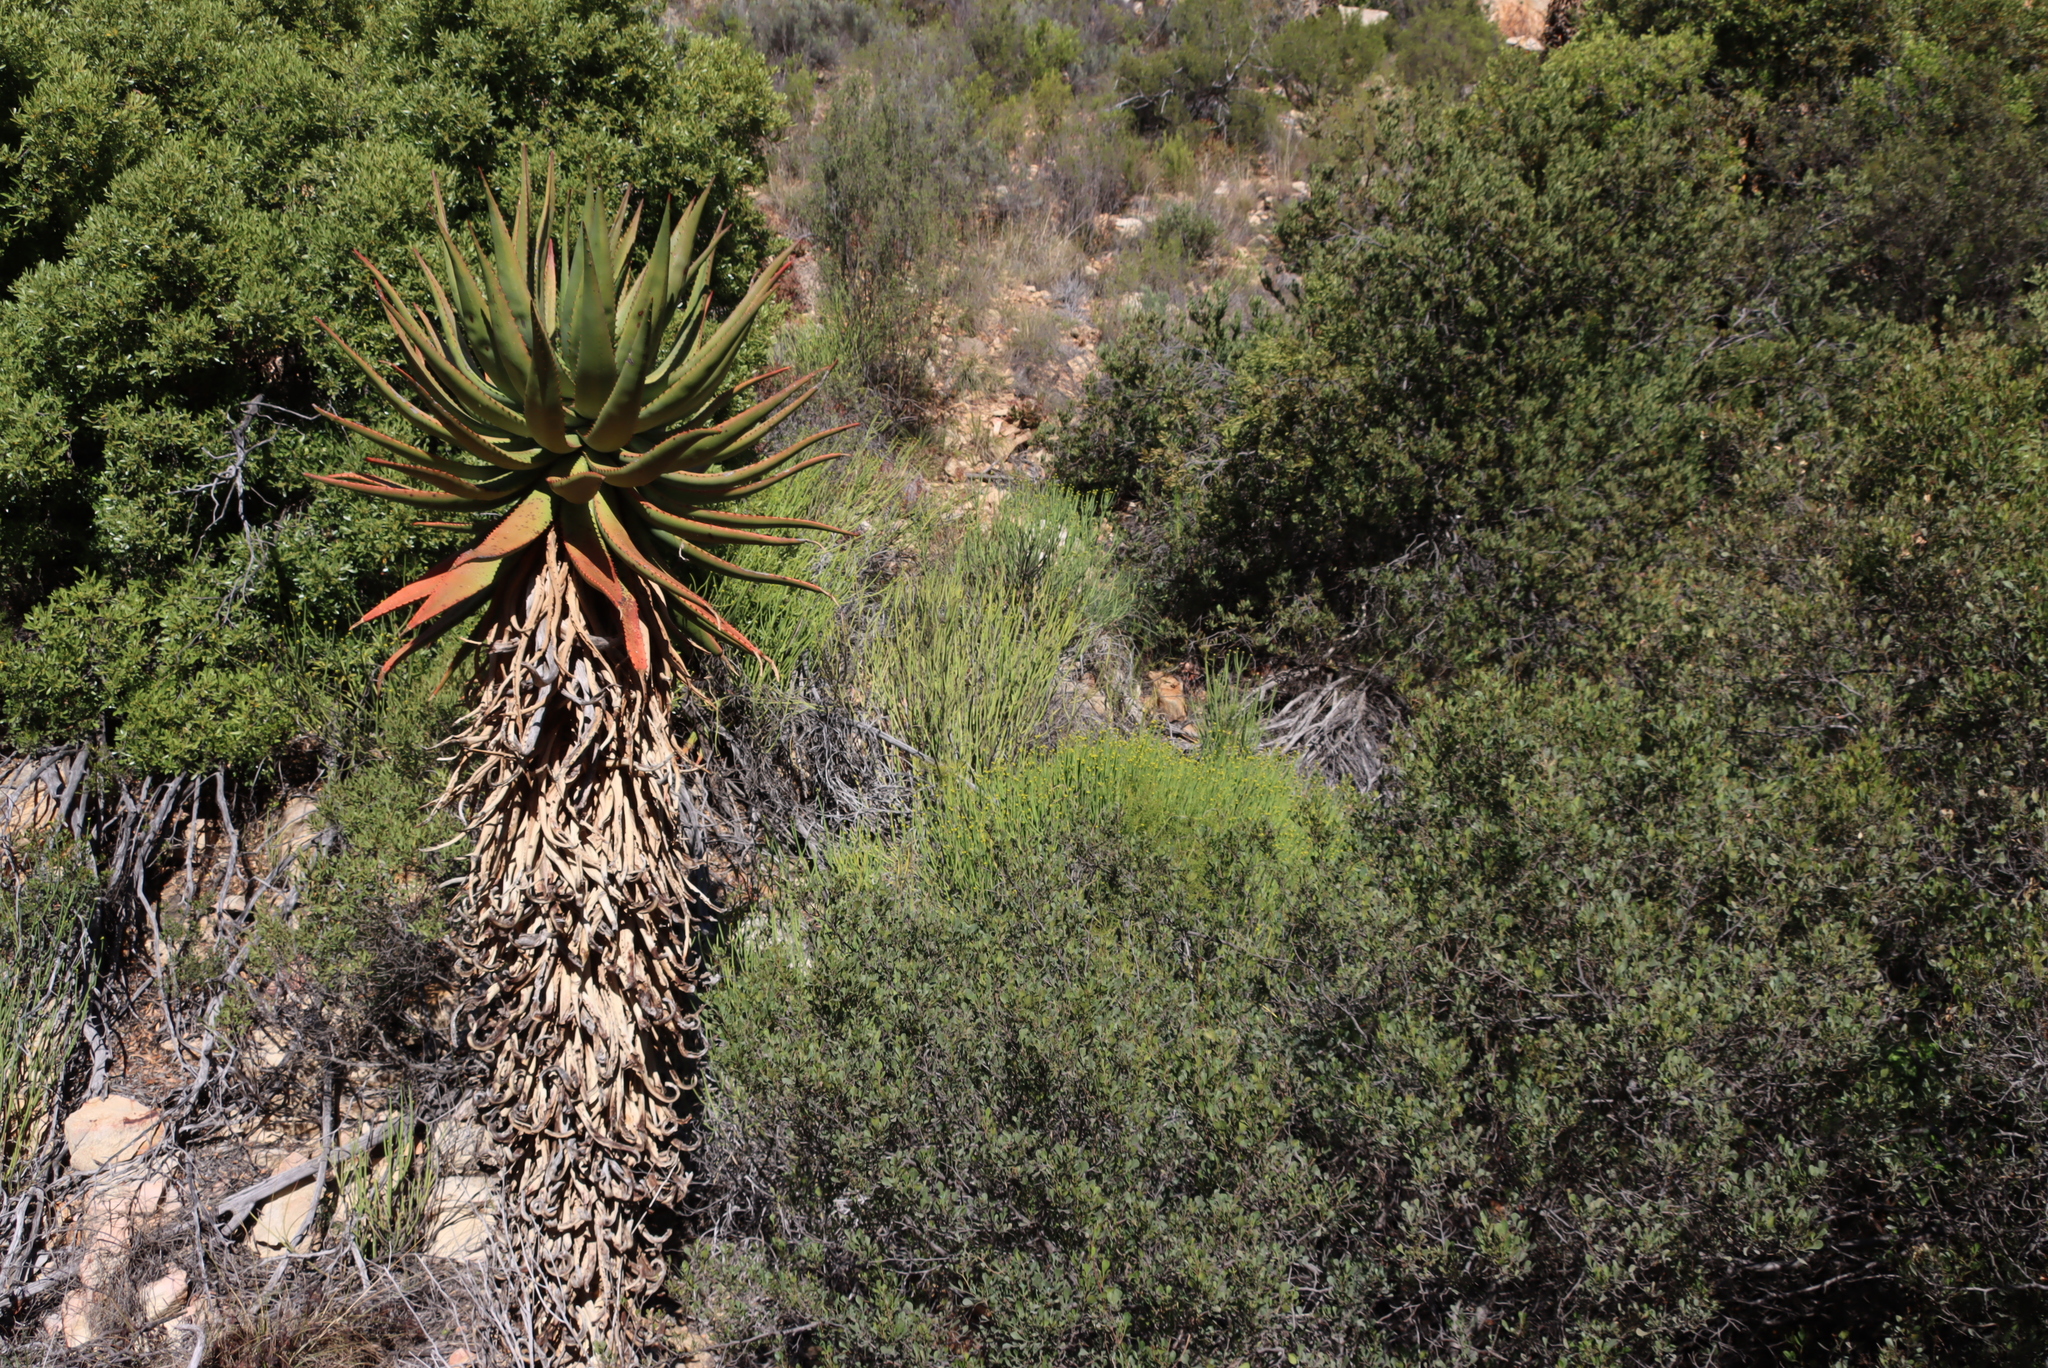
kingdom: Plantae
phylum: Tracheophyta
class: Magnoliopsida
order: Malpighiales
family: Euphorbiaceae
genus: Euphorbia
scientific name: Euphorbia mauritanica
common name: Jackal's-food
